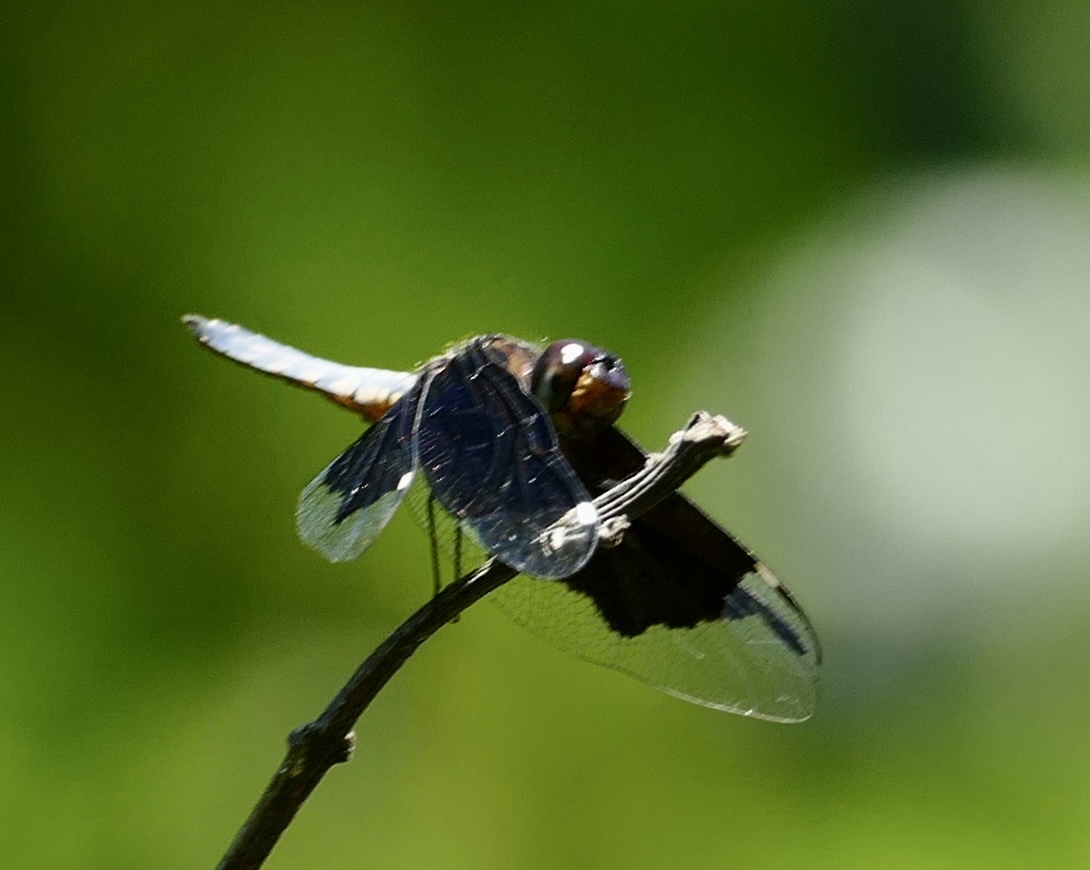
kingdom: Animalia
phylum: Arthropoda
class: Insecta
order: Odonata
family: Libellulidae
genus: Palpopleura
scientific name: Palpopleura lucia
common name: Lucia widow
